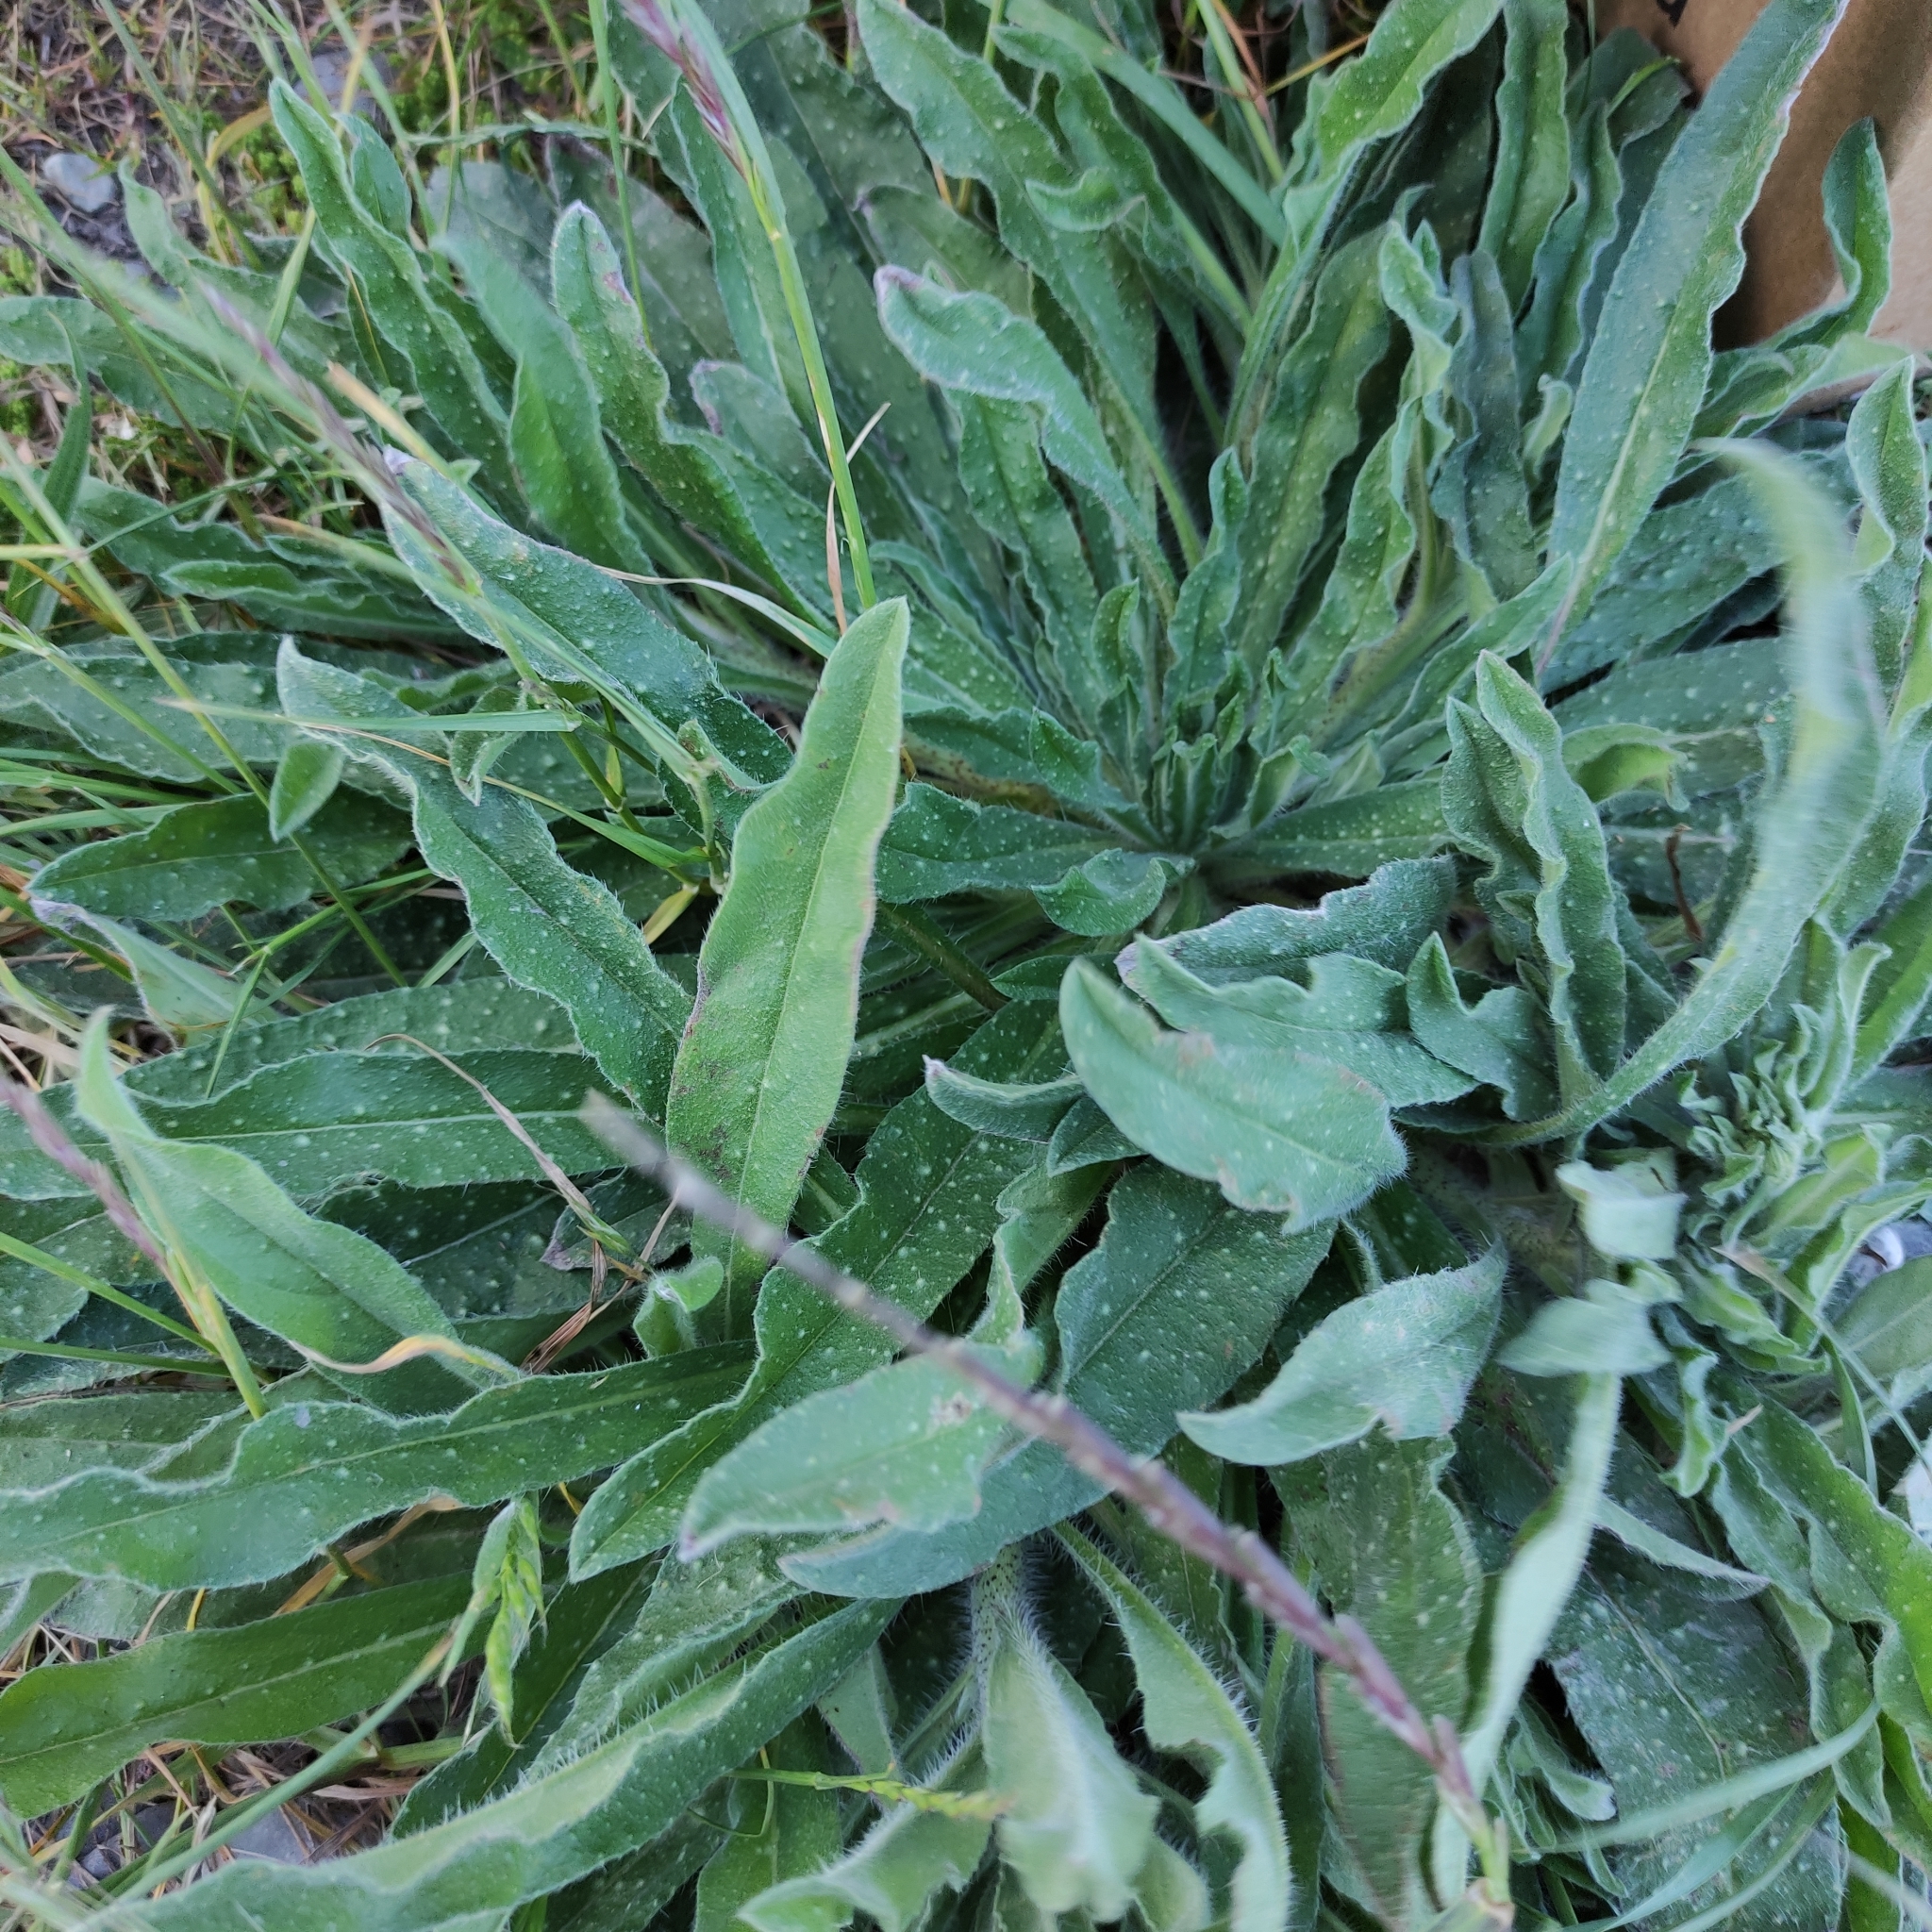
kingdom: Plantae
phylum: Tracheophyta
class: Magnoliopsida
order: Boraginales
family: Boraginaceae
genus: Echium
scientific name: Echium vulgare
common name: Common viper's bugloss
